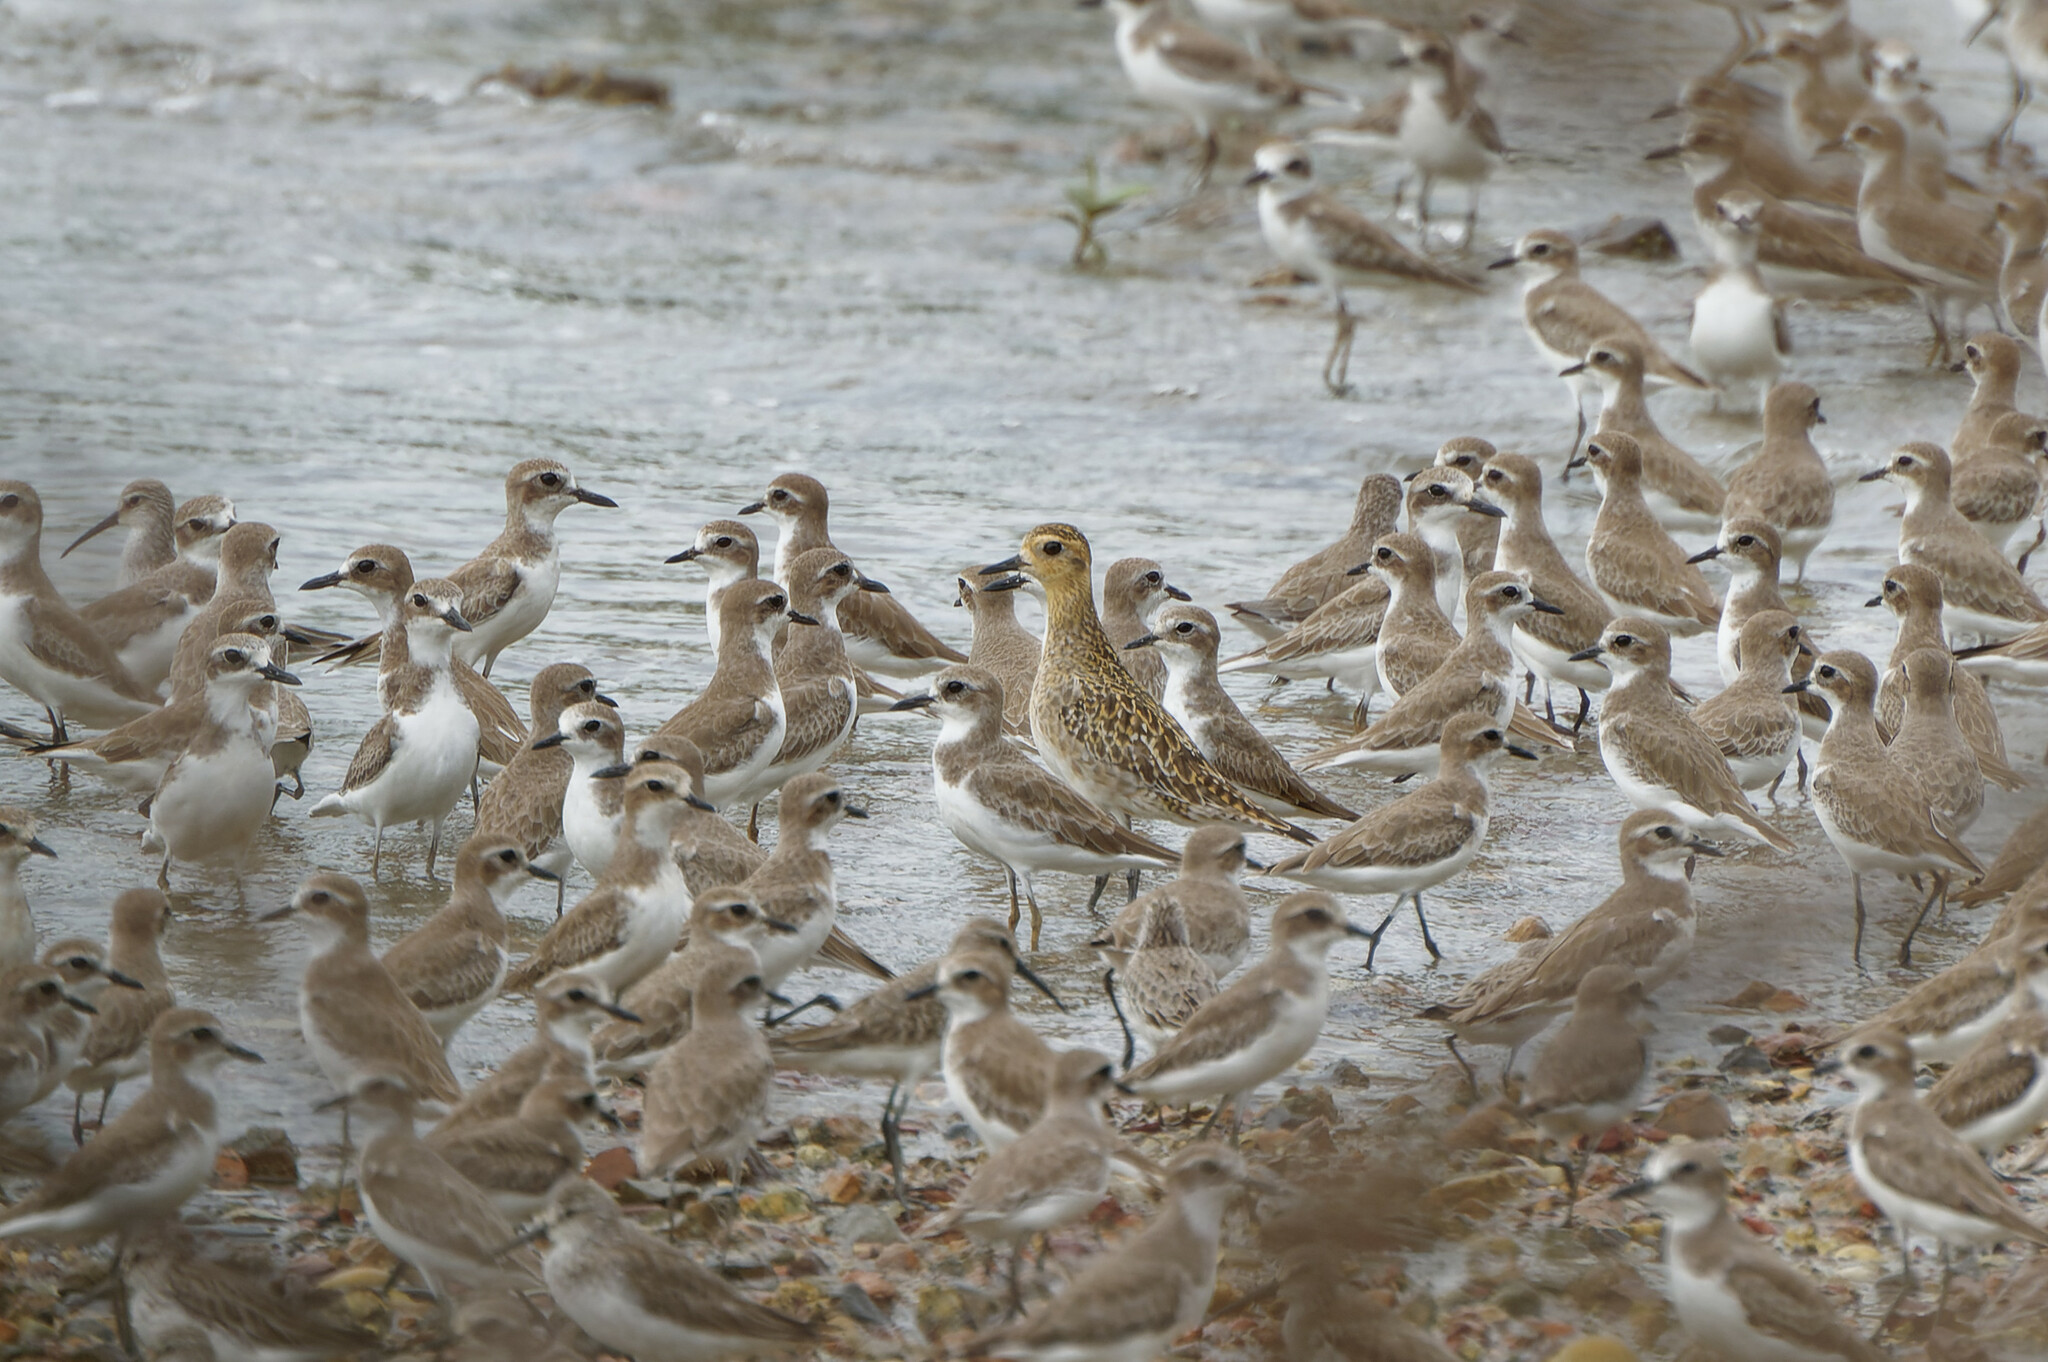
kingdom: Animalia
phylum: Chordata
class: Aves
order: Charadriiformes
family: Charadriidae
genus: Pluvialis
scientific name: Pluvialis fulva
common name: Pacific golden plover
